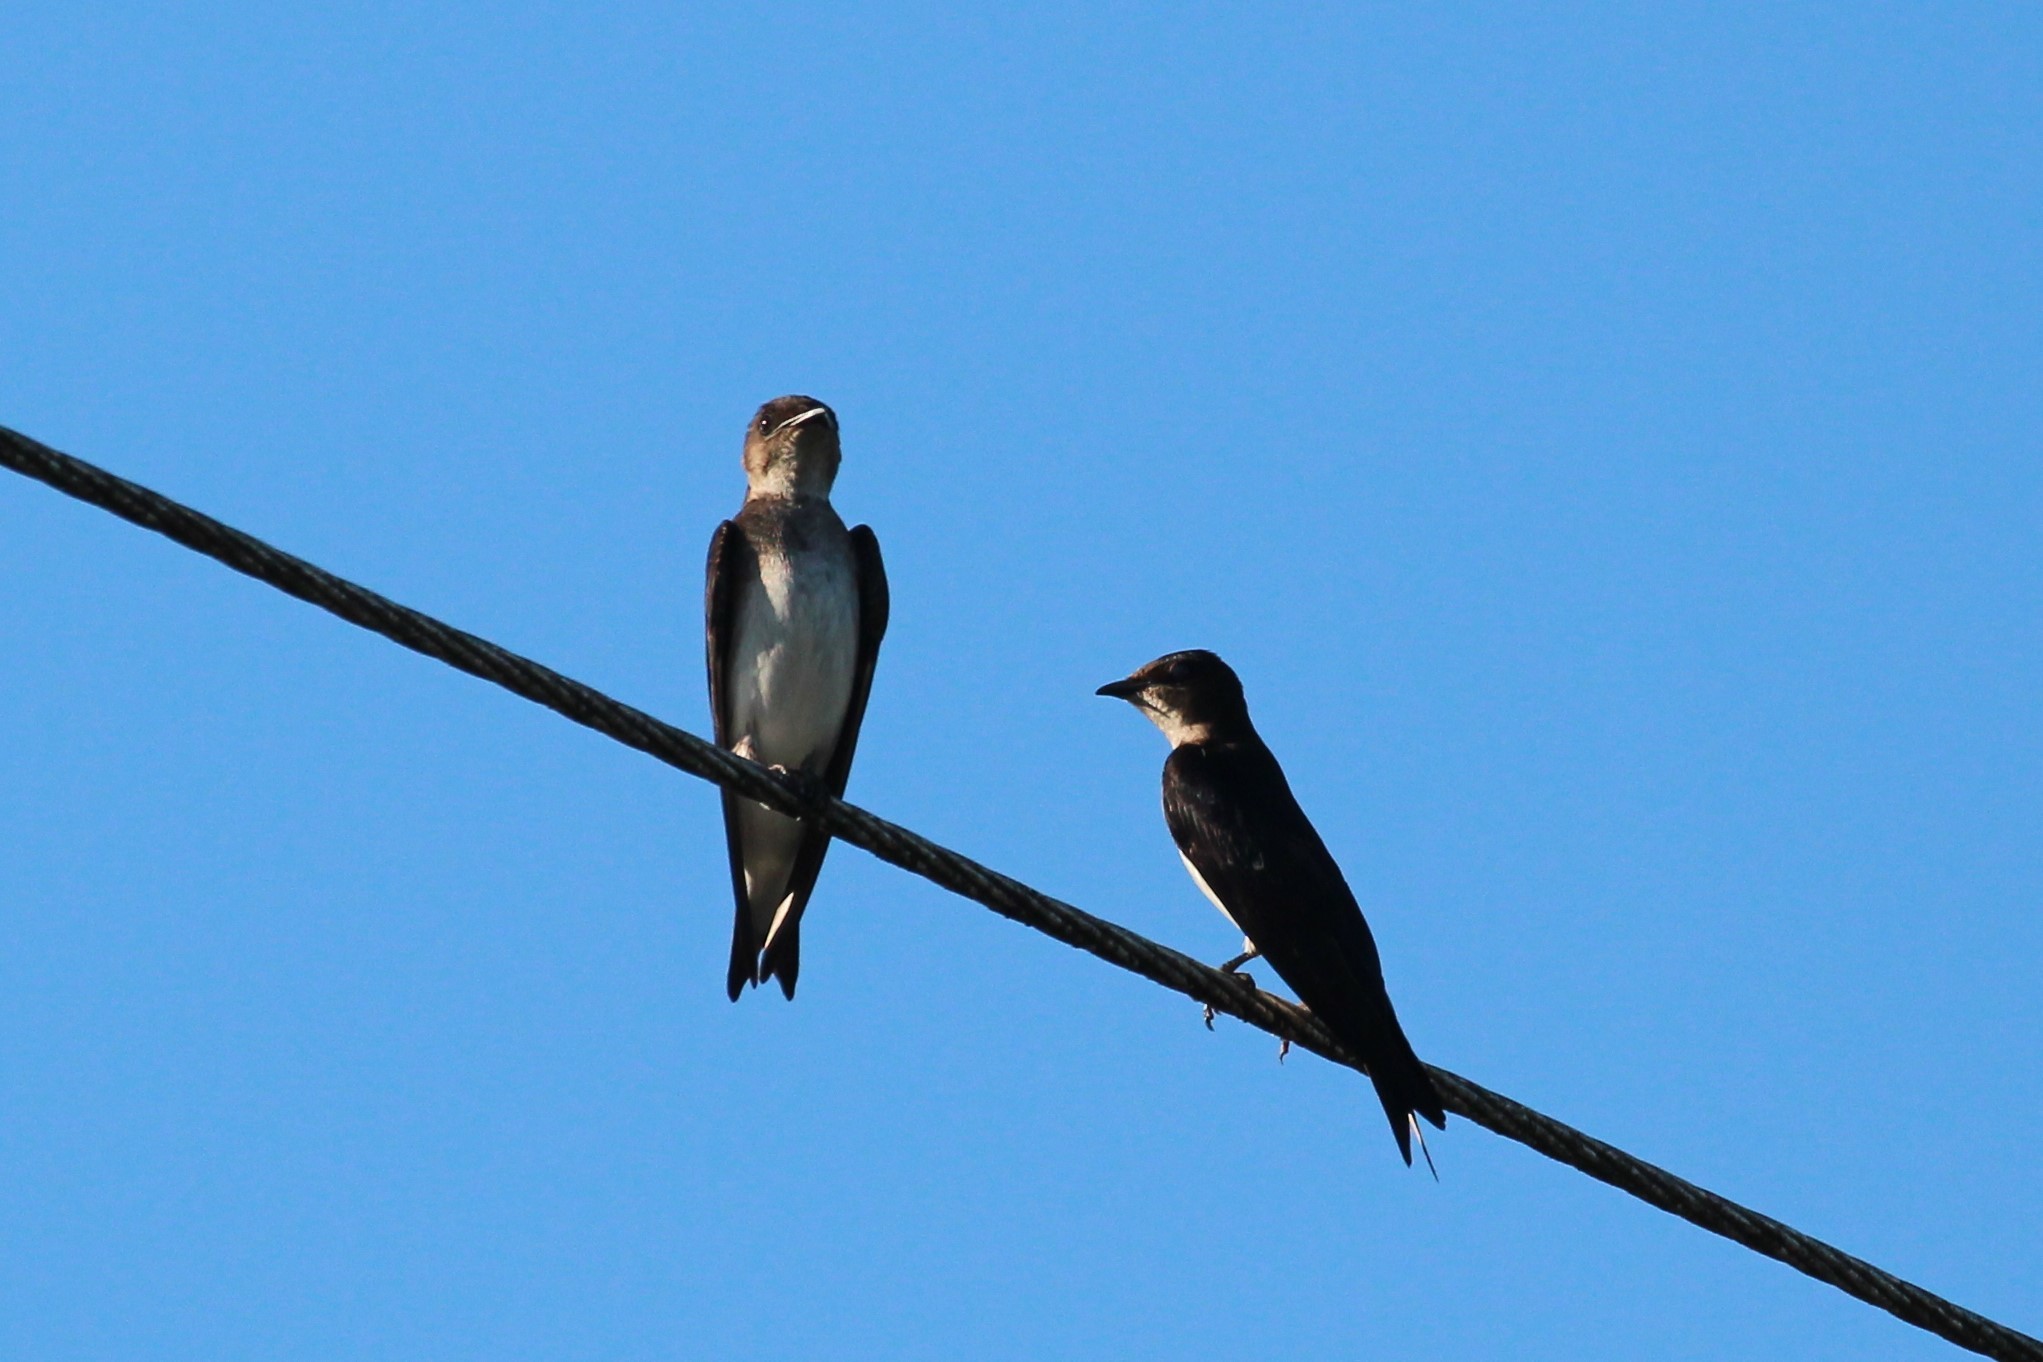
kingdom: Animalia
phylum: Chordata
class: Aves
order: Passeriformes
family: Hirundinidae
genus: Progne
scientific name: Progne chalybea
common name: Grey-breasted martin
